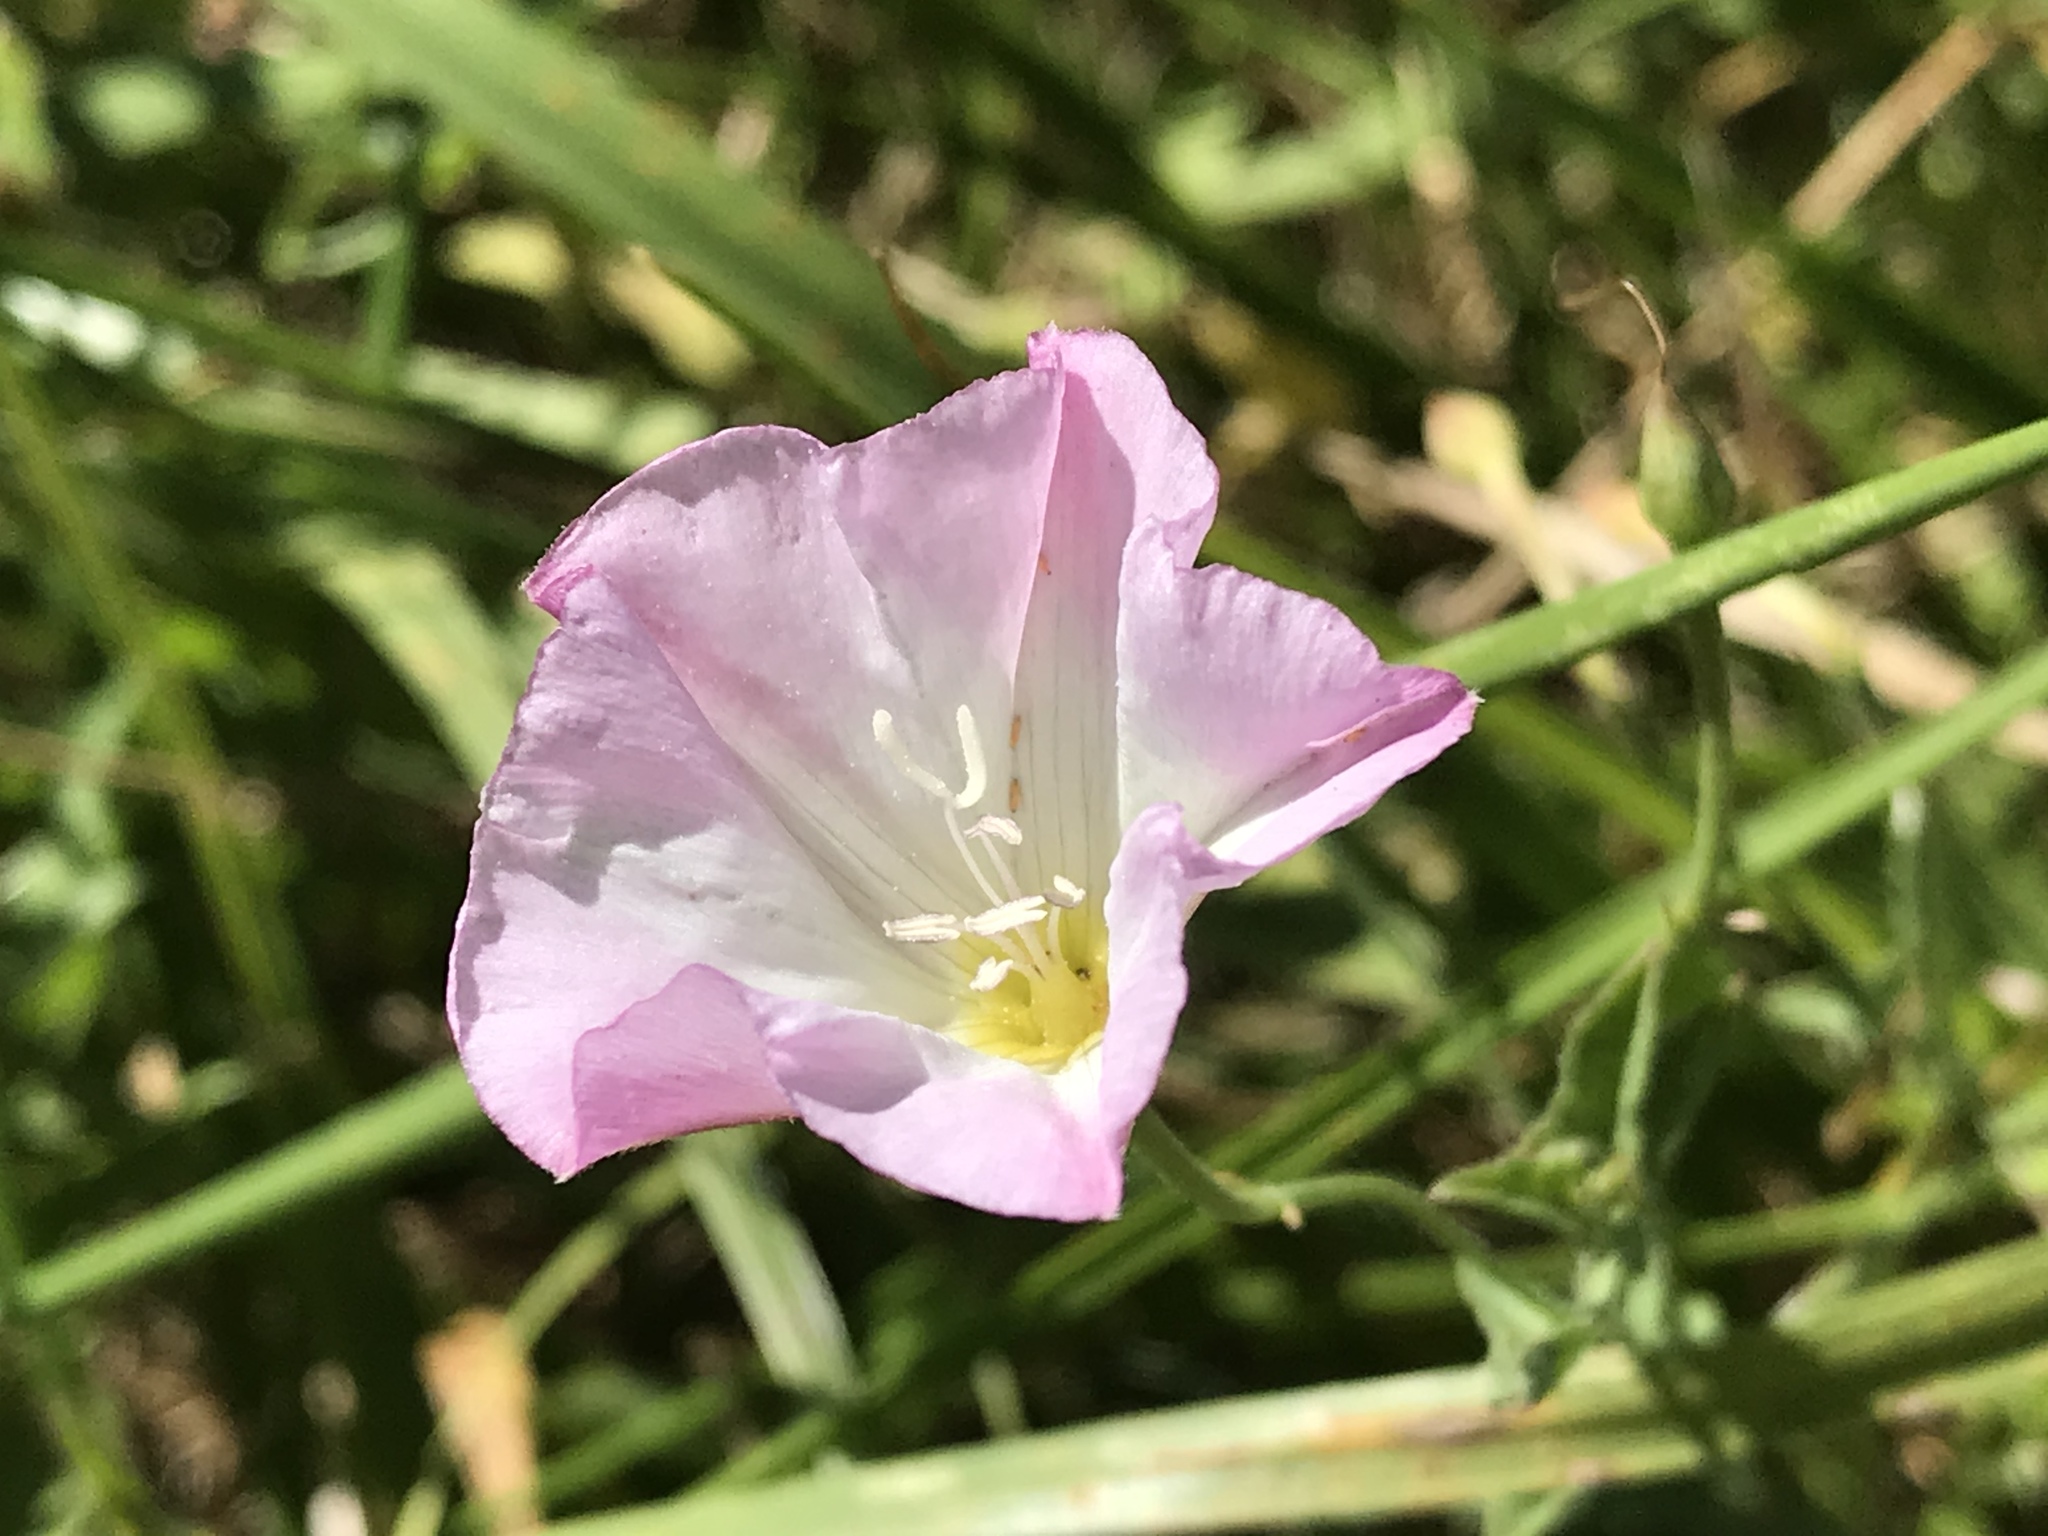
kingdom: Plantae
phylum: Tracheophyta
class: Magnoliopsida
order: Solanales
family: Convolvulaceae
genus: Convolvulus
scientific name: Convolvulus arvensis
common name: Field bindweed
